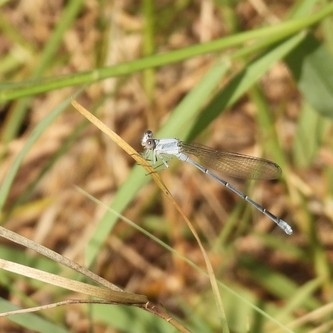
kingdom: Animalia
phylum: Arthropoda
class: Insecta
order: Odonata
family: Coenagrionidae
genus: Argia
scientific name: Argia moesta
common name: Powdered dancer
